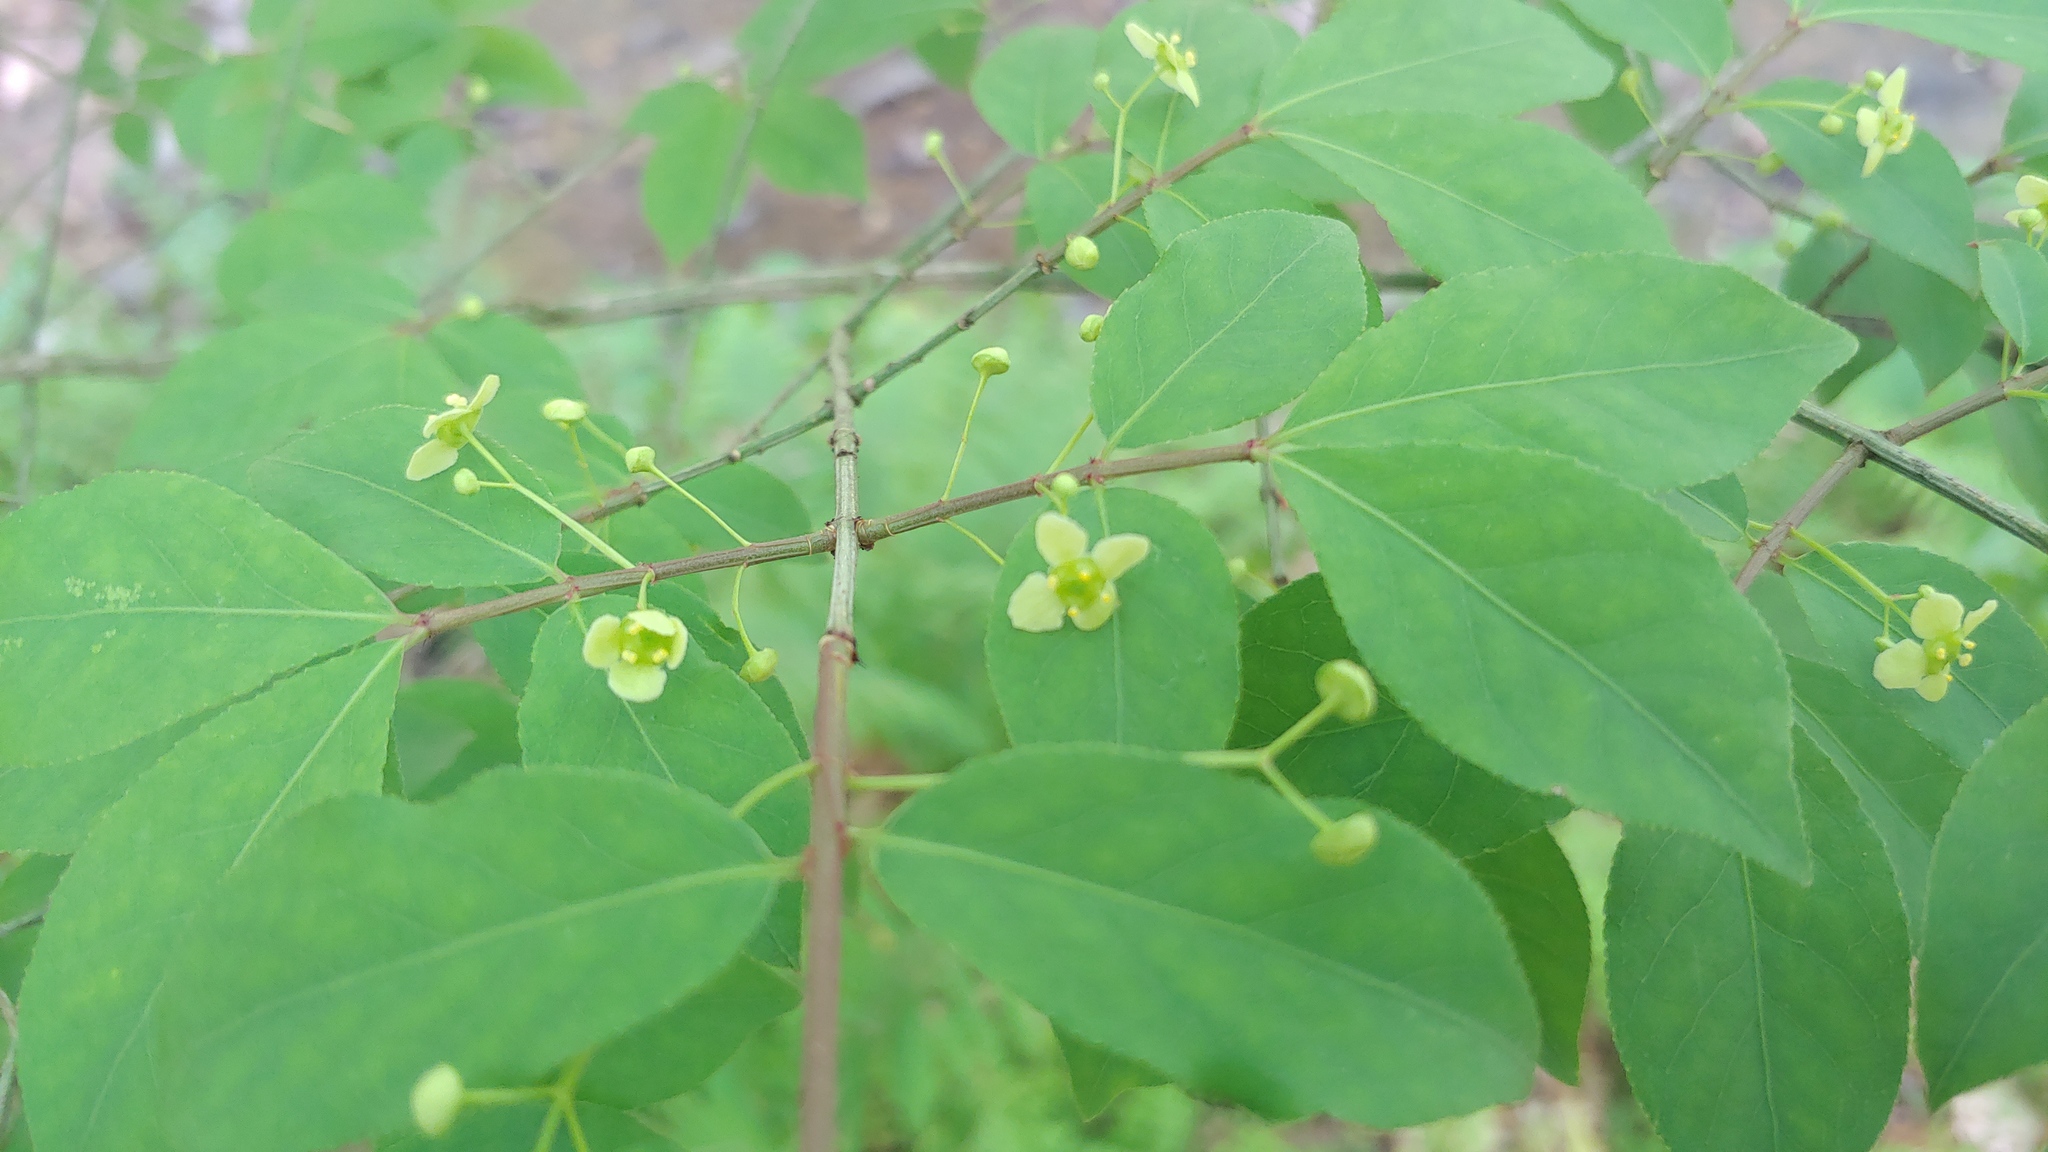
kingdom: Plantae
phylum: Tracheophyta
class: Magnoliopsida
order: Celastrales
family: Celastraceae
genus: Euonymus
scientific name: Euonymus alatus
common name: Winged euonymus
